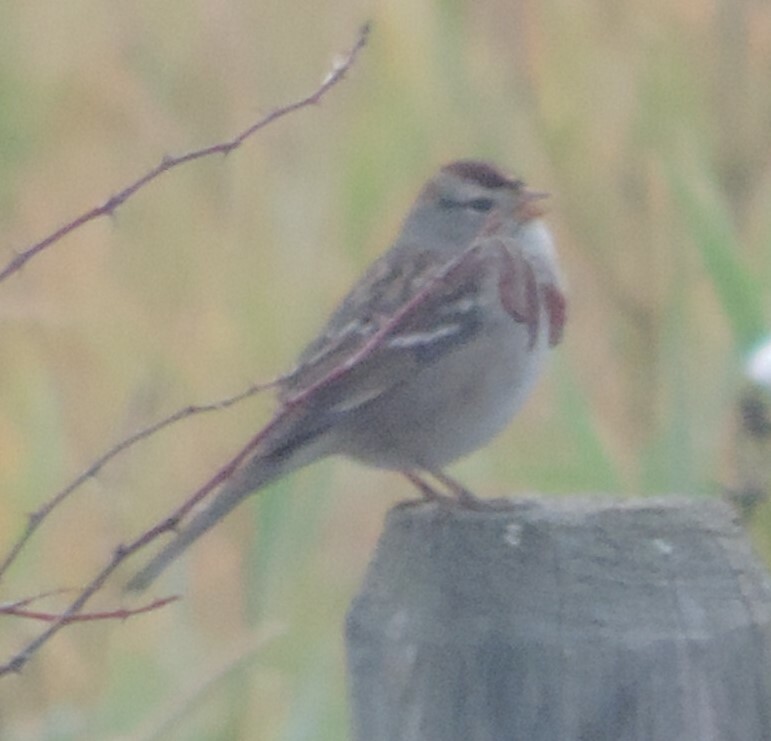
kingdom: Animalia
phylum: Chordata
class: Aves
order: Passeriformes
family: Passerellidae
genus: Zonotrichia
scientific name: Zonotrichia leucophrys
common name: White-crowned sparrow
